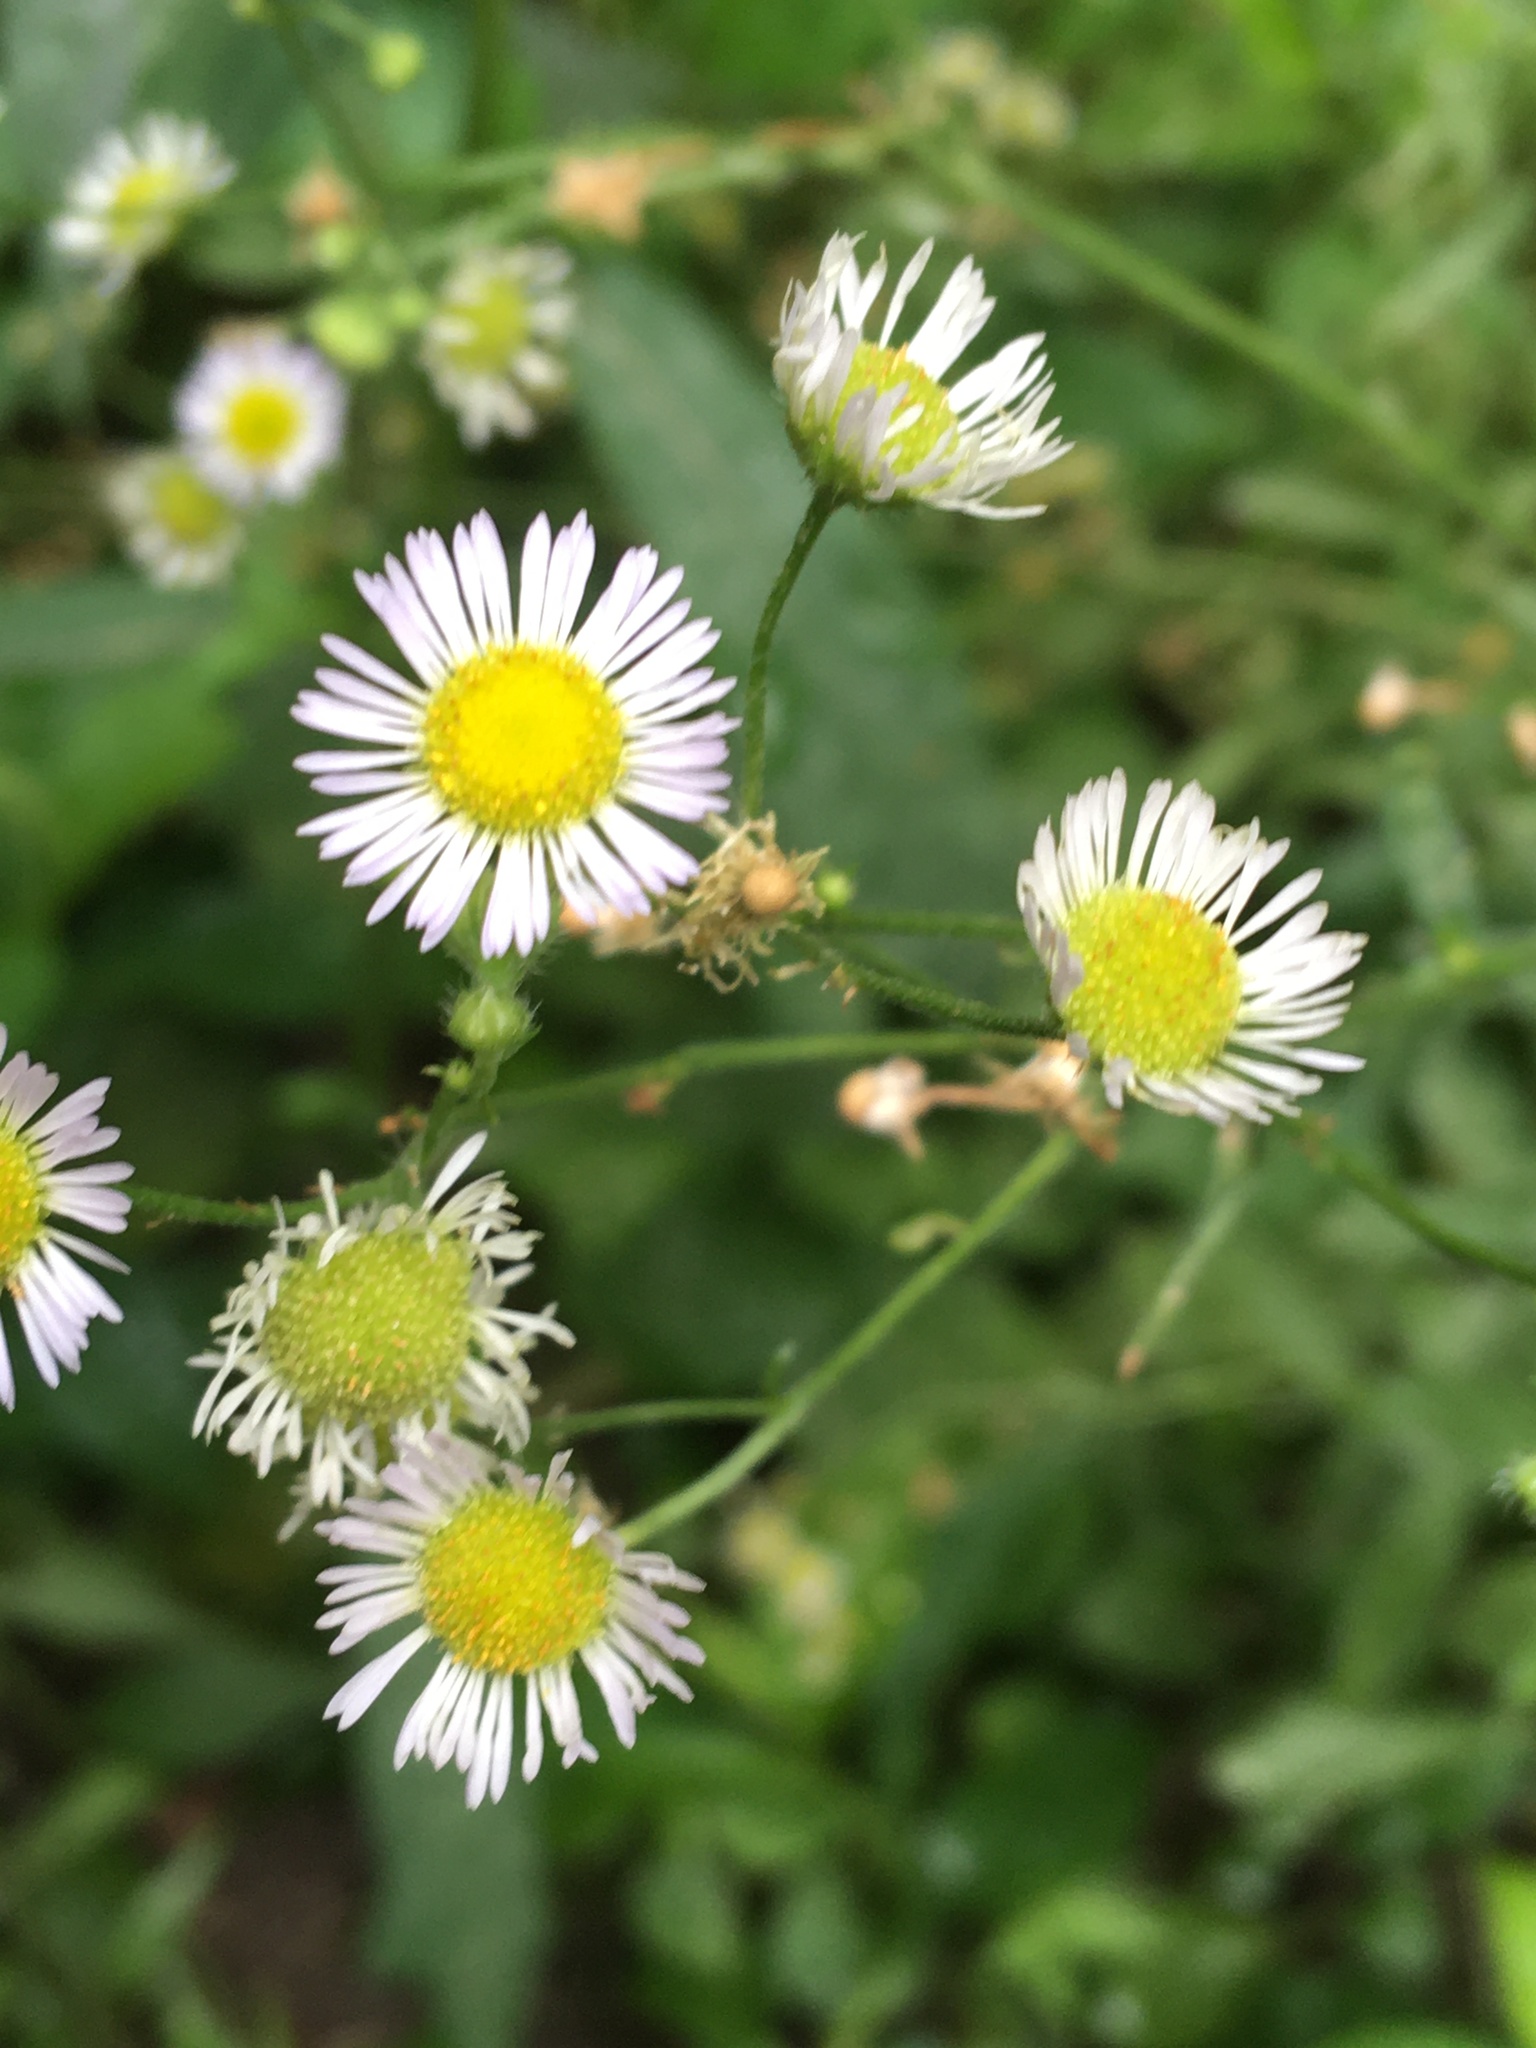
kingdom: Plantae
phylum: Tracheophyta
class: Magnoliopsida
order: Asterales
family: Asteraceae
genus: Erigeron
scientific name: Erigeron strigosus
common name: Common eastern fleabane
